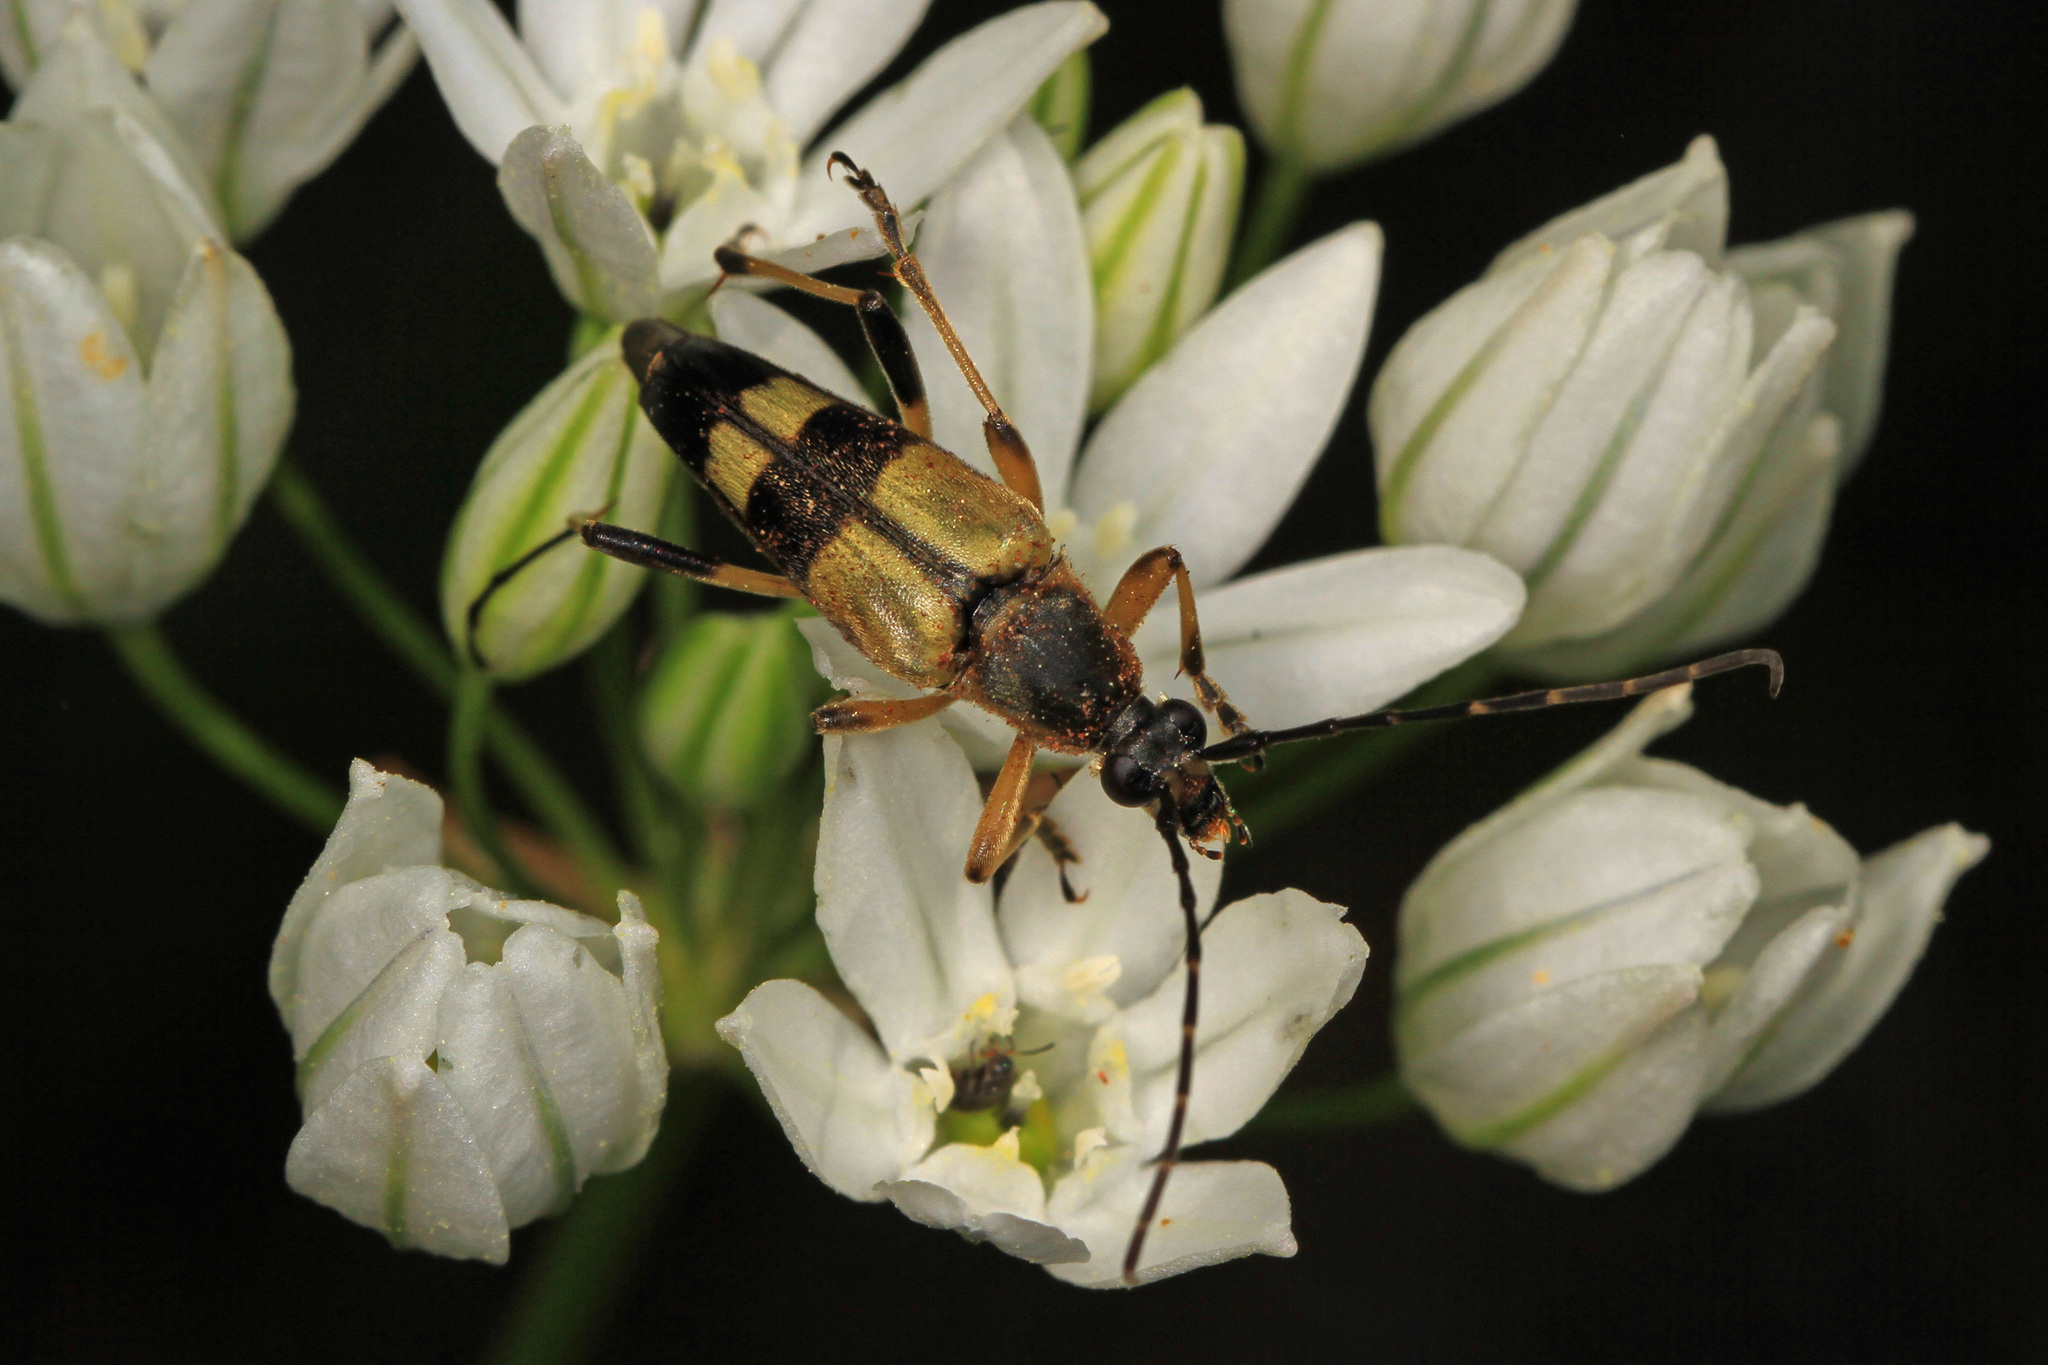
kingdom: Animalia
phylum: Arthropoda
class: Insecta
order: Coleoptera
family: Cerambycidae
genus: Etorofus
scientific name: Etorofus obliteratus
